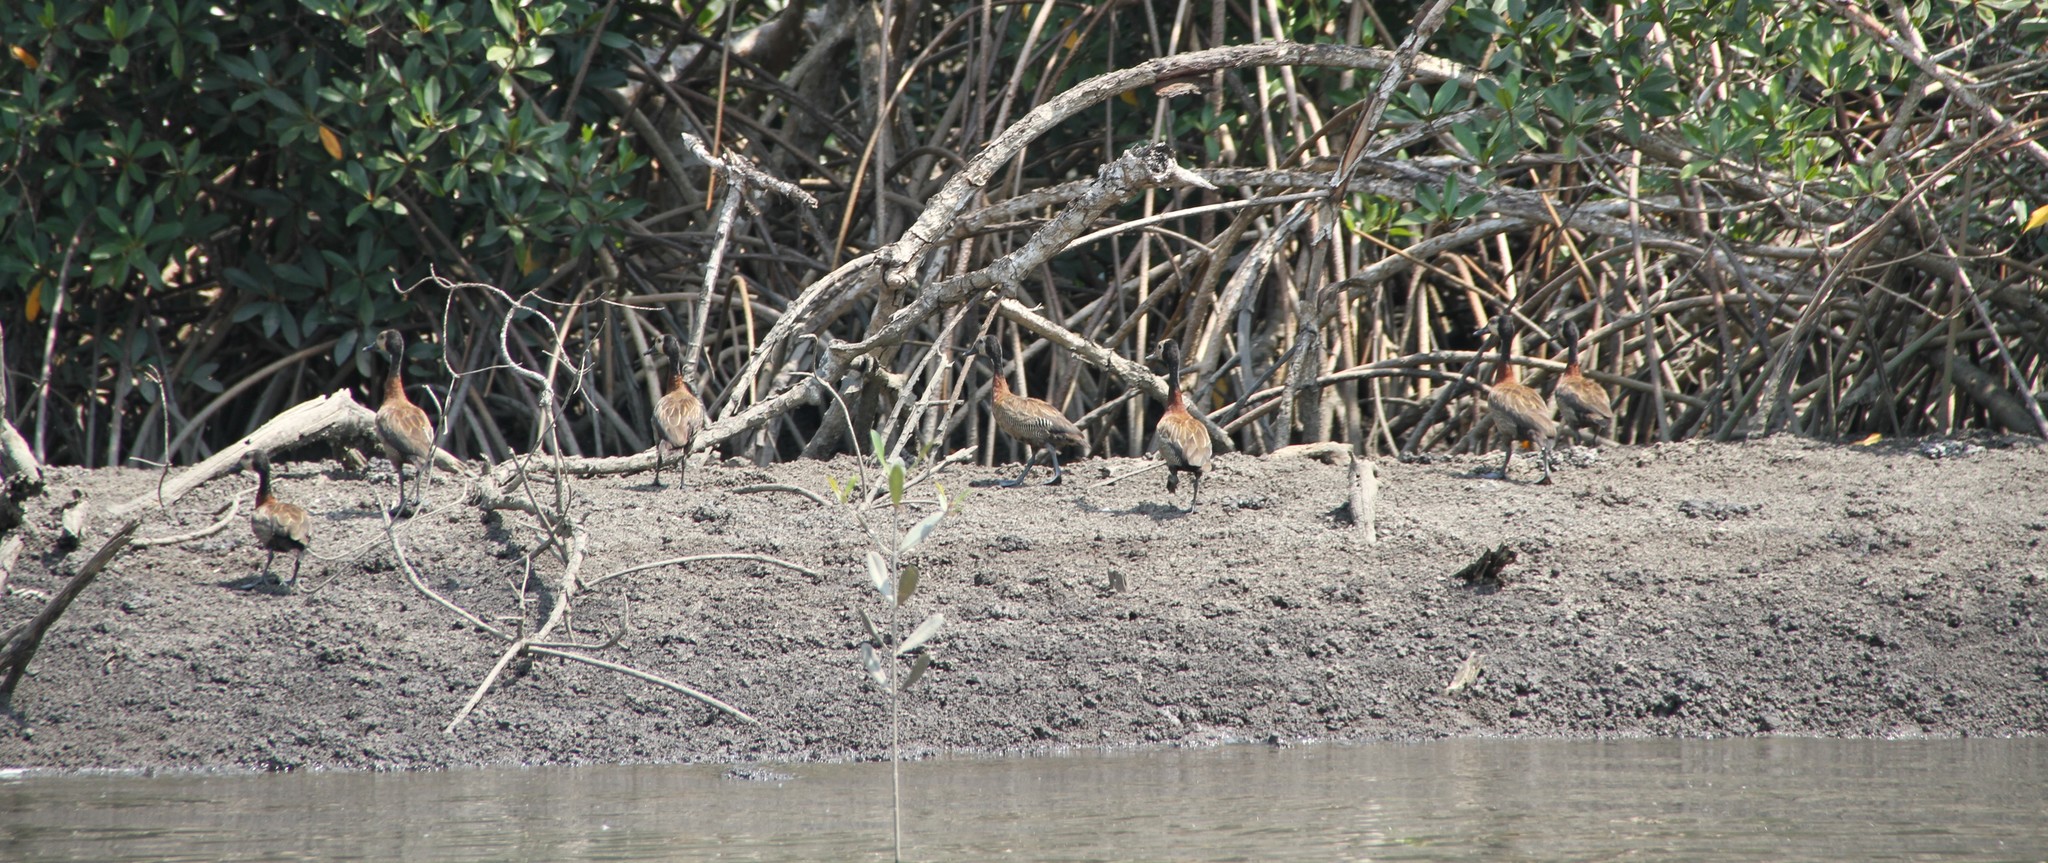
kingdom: Animalia
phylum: Chordata
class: Aves
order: Anseriformes
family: Anatidae
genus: Dendrocygna
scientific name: Dendrocygna viduata
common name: White-faced whistling duck
